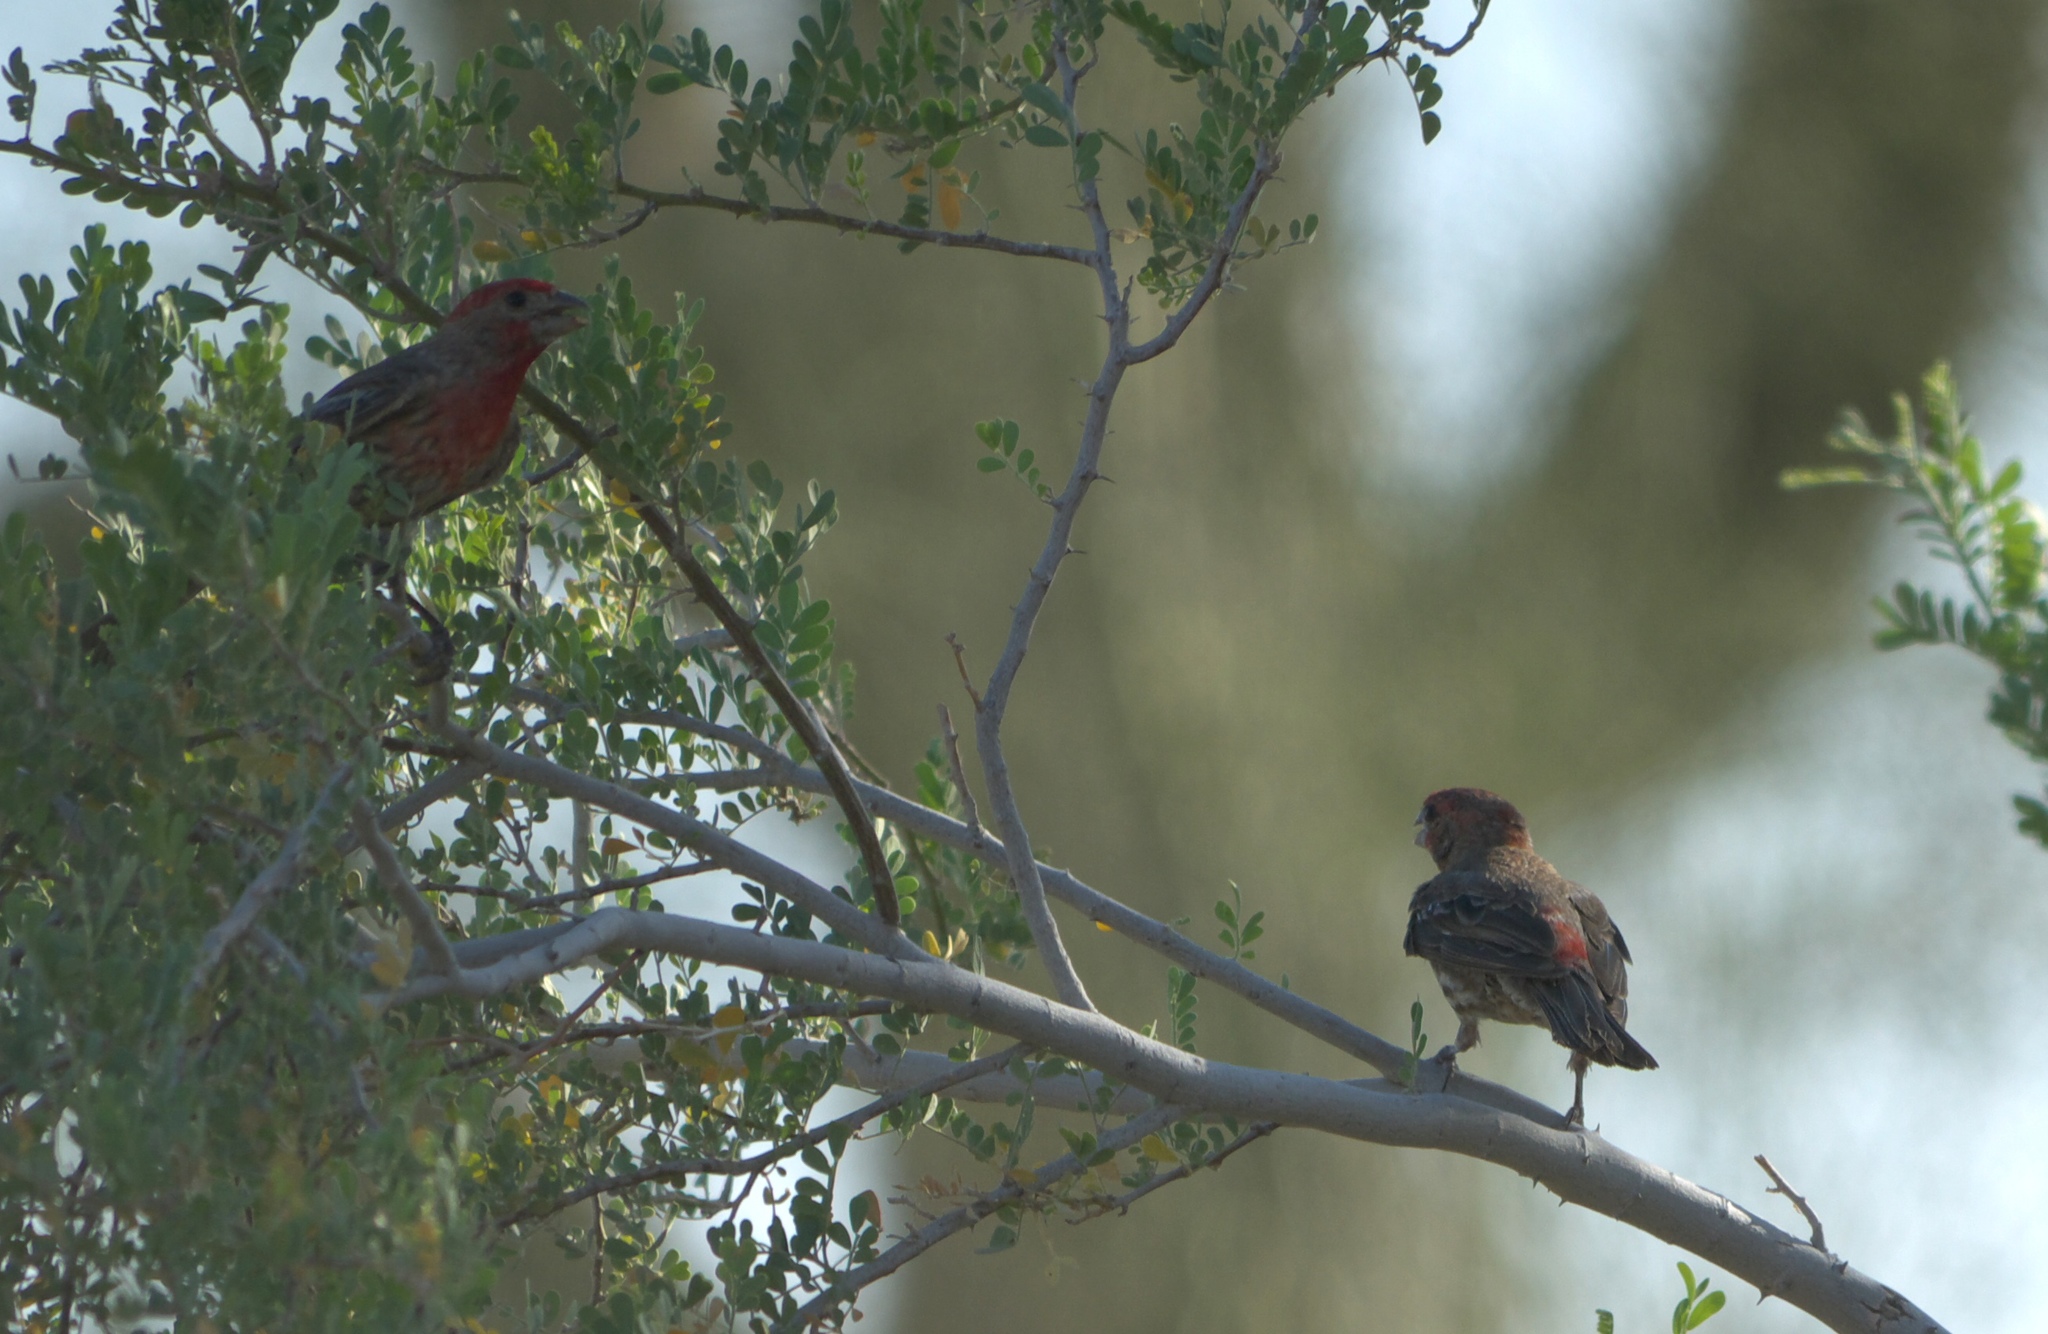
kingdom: Animalia
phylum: Chordata
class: Aves
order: Passeriformes
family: Fringillidae
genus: Haemorhous
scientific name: Haemorhous mexicanus
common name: House finch
